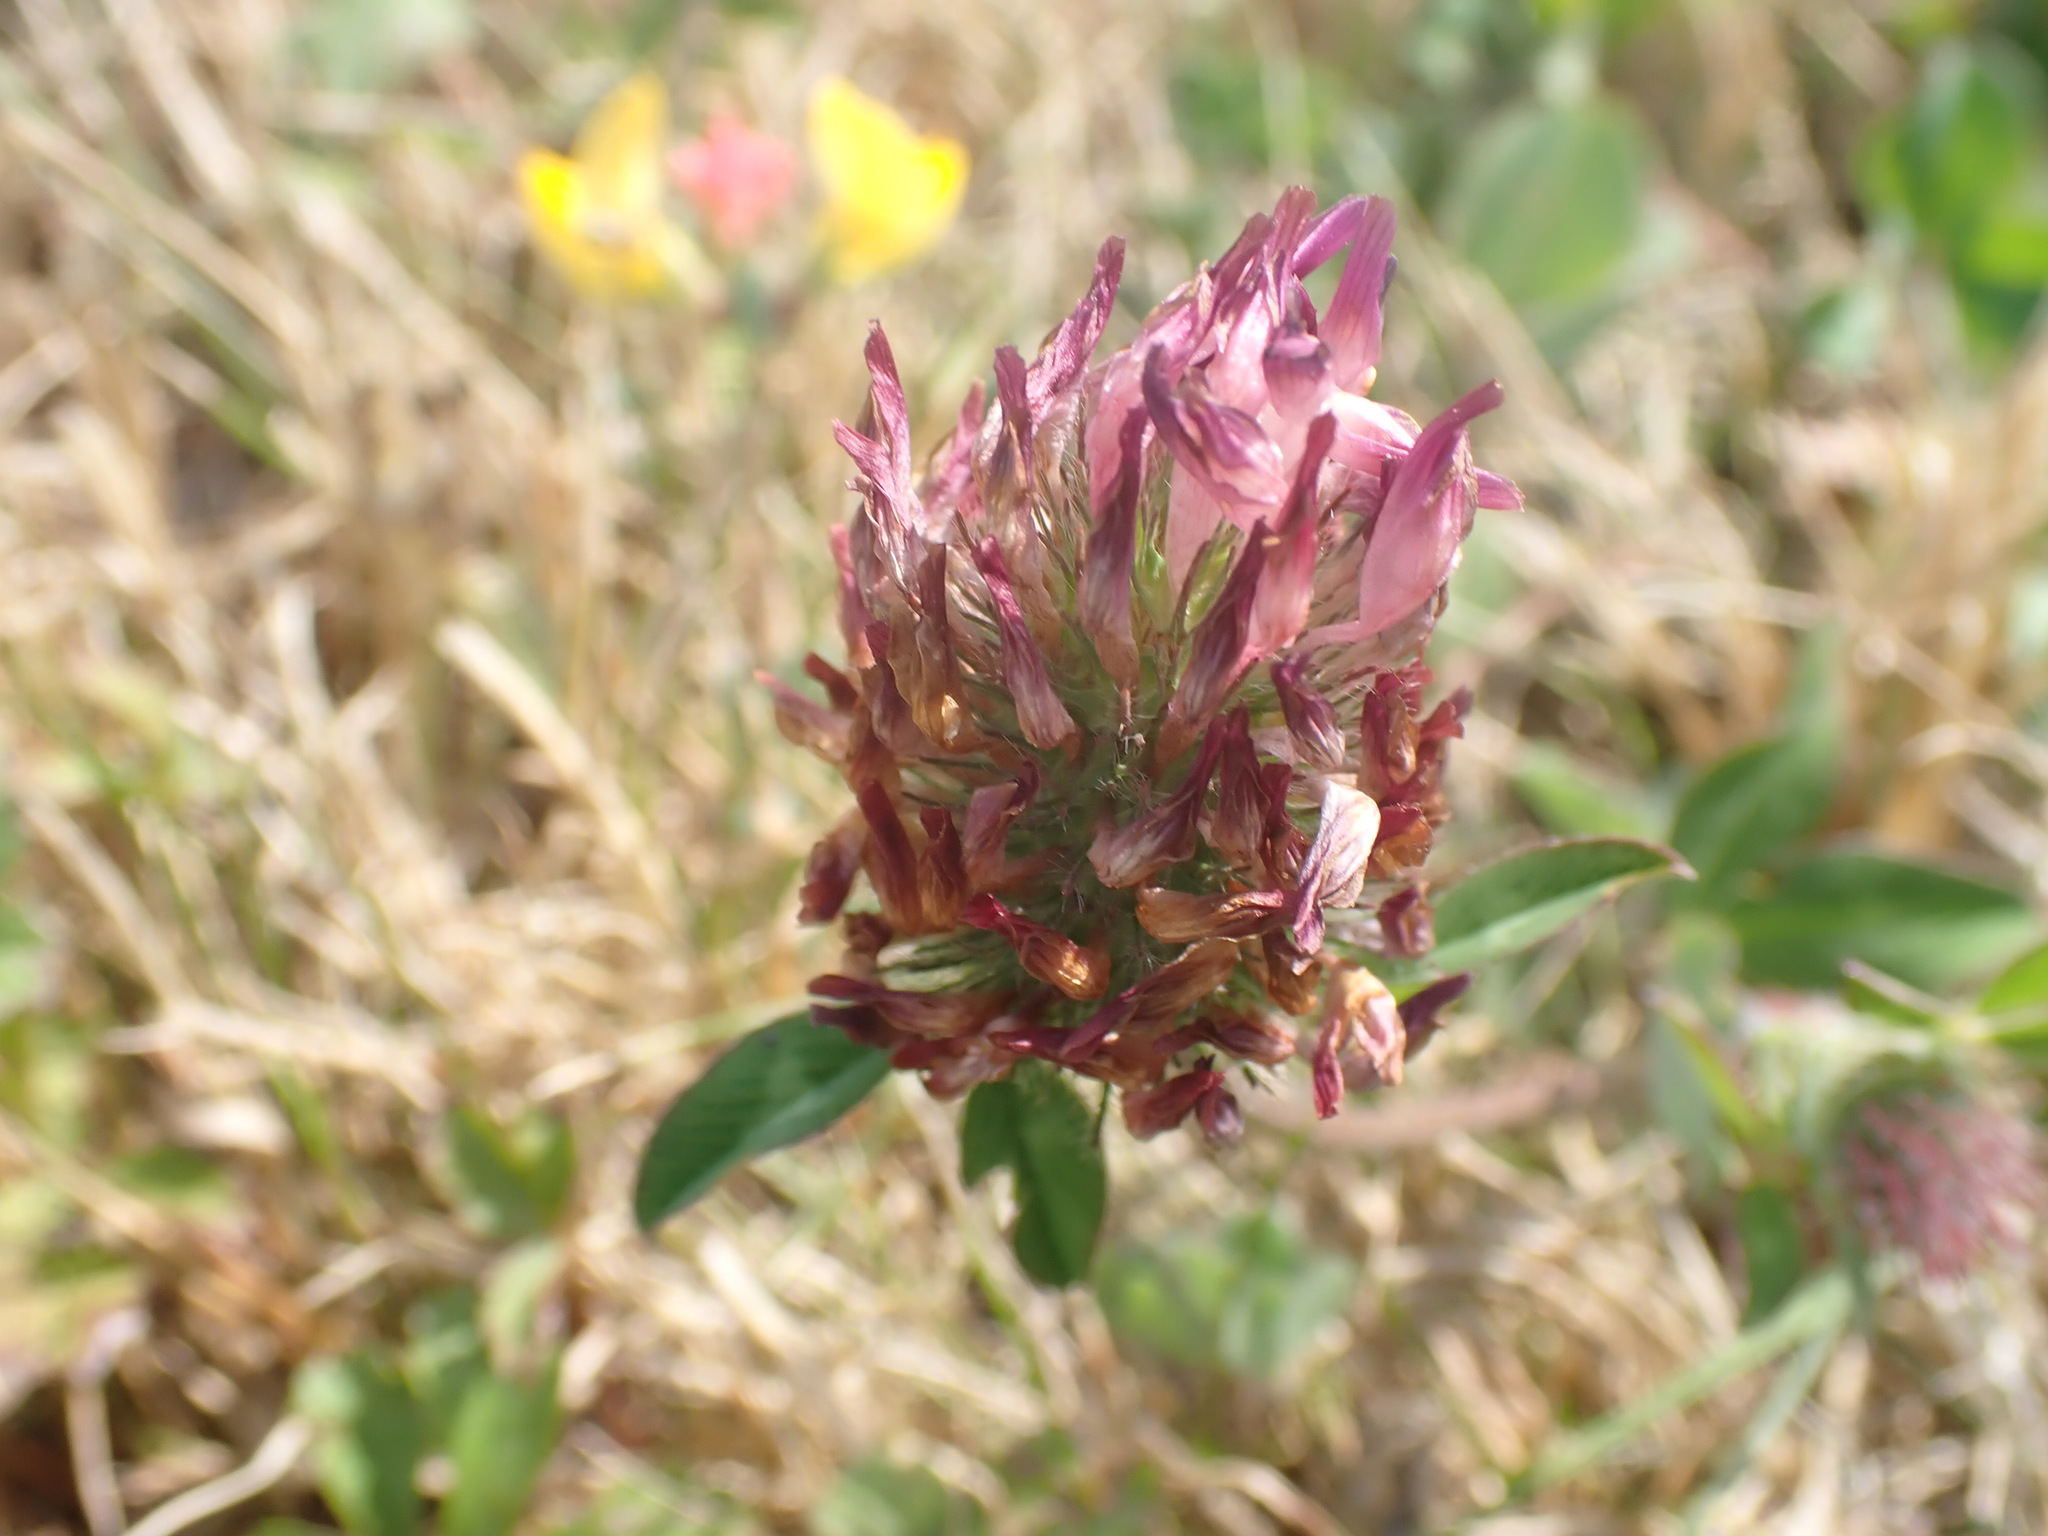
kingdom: Plantae
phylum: Tracheophyta
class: Magnoliopsida
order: Fabales
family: Fabaceae
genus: Trifolium
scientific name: Trifolium pratense
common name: Red clover
